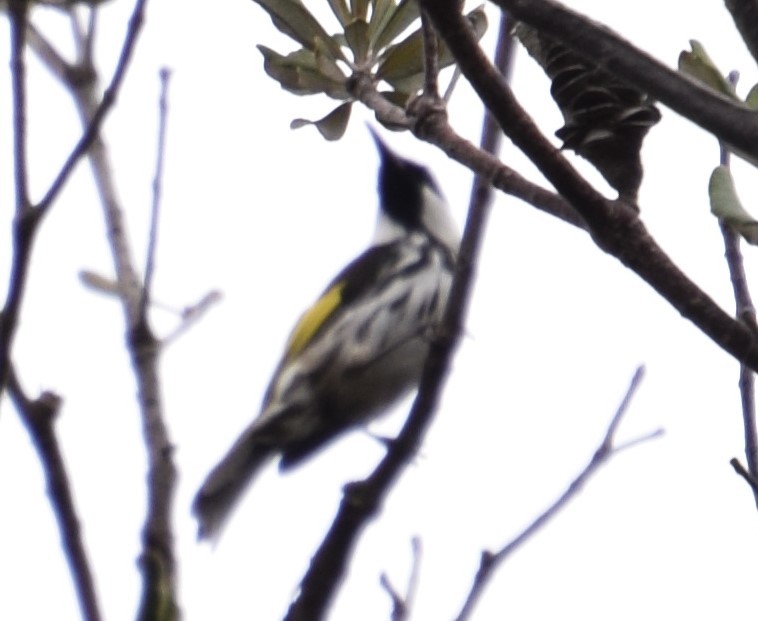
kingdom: Animalia
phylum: Chordata
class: Aves
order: Passeriformes
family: Meliphagidae
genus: Phylidonyris
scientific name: Phylidonyris niger
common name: White-cheeked honeyeater
